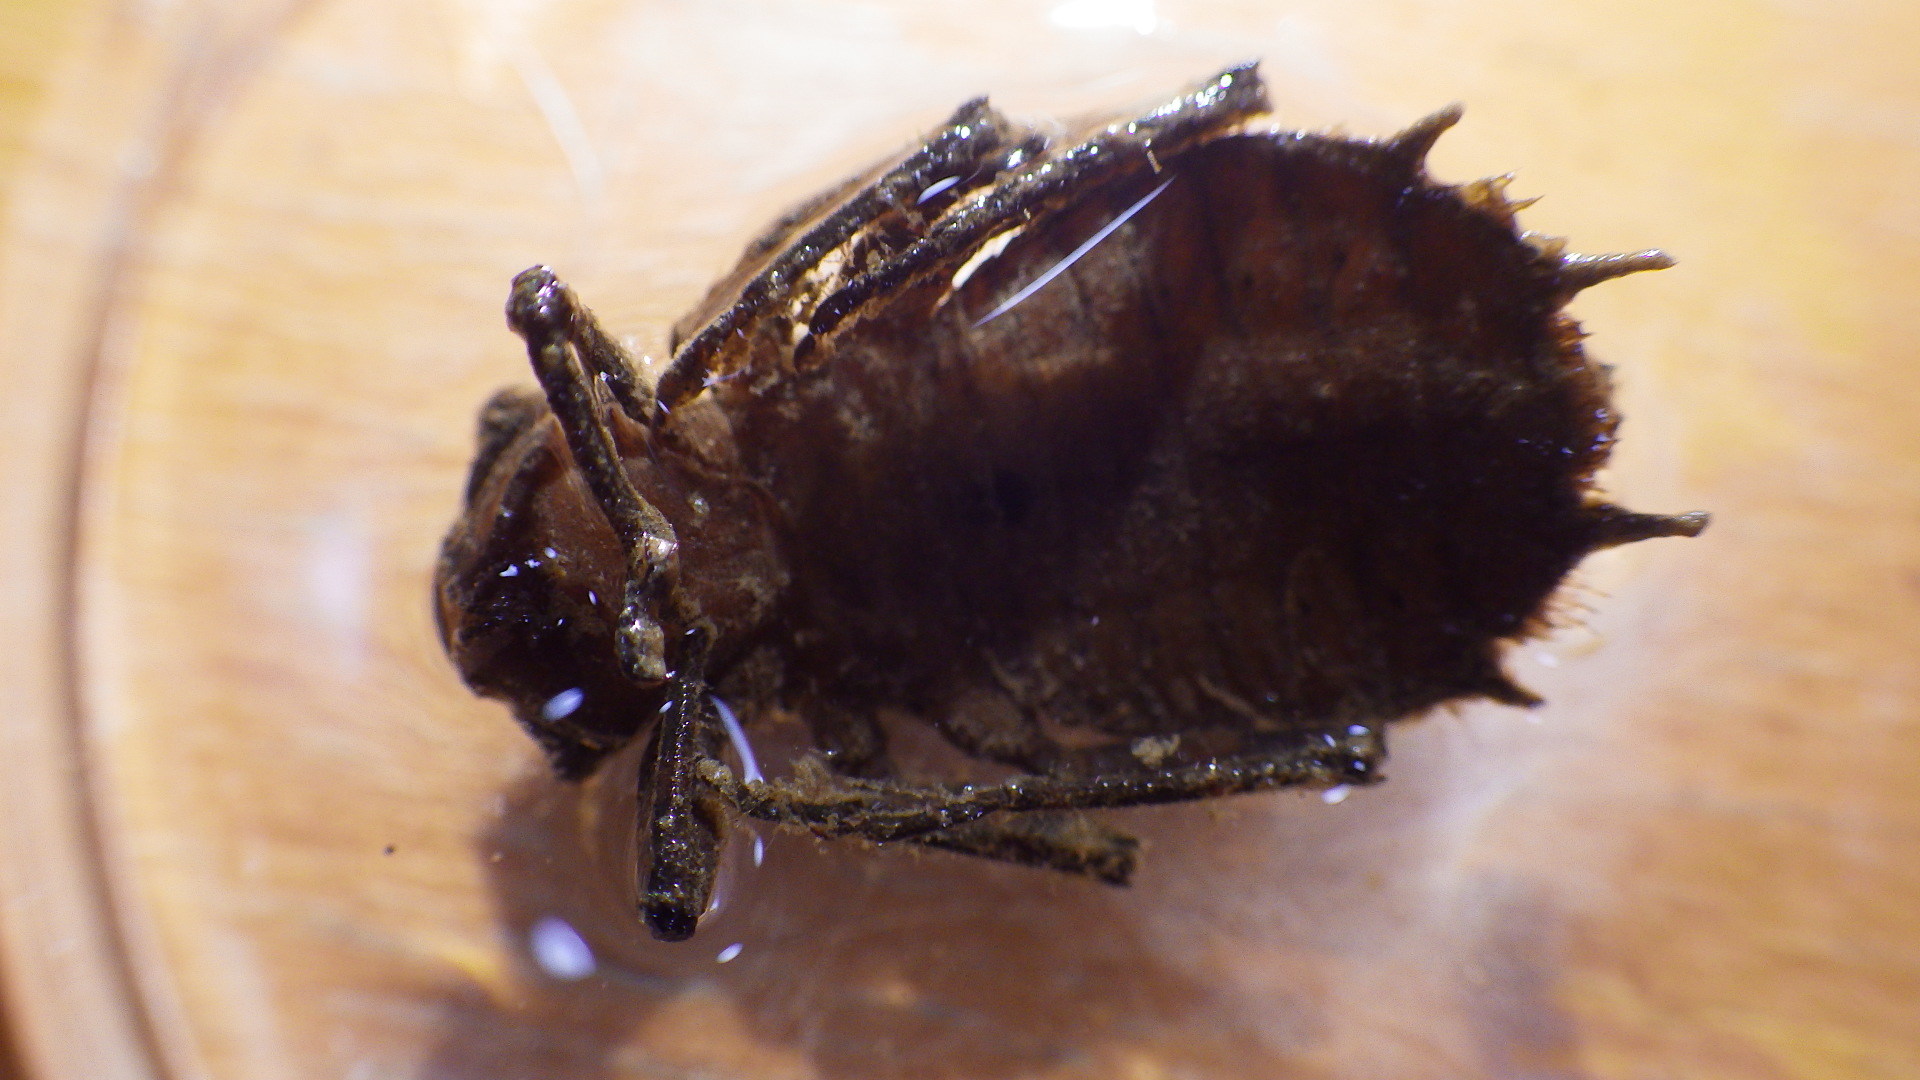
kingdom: Animalia
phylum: Arthropoda
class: Insecta
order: Odonata
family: Corduliidae
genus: Neurocordulia
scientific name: Neurocordulia obsoleta
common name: Umber shadowdragon
